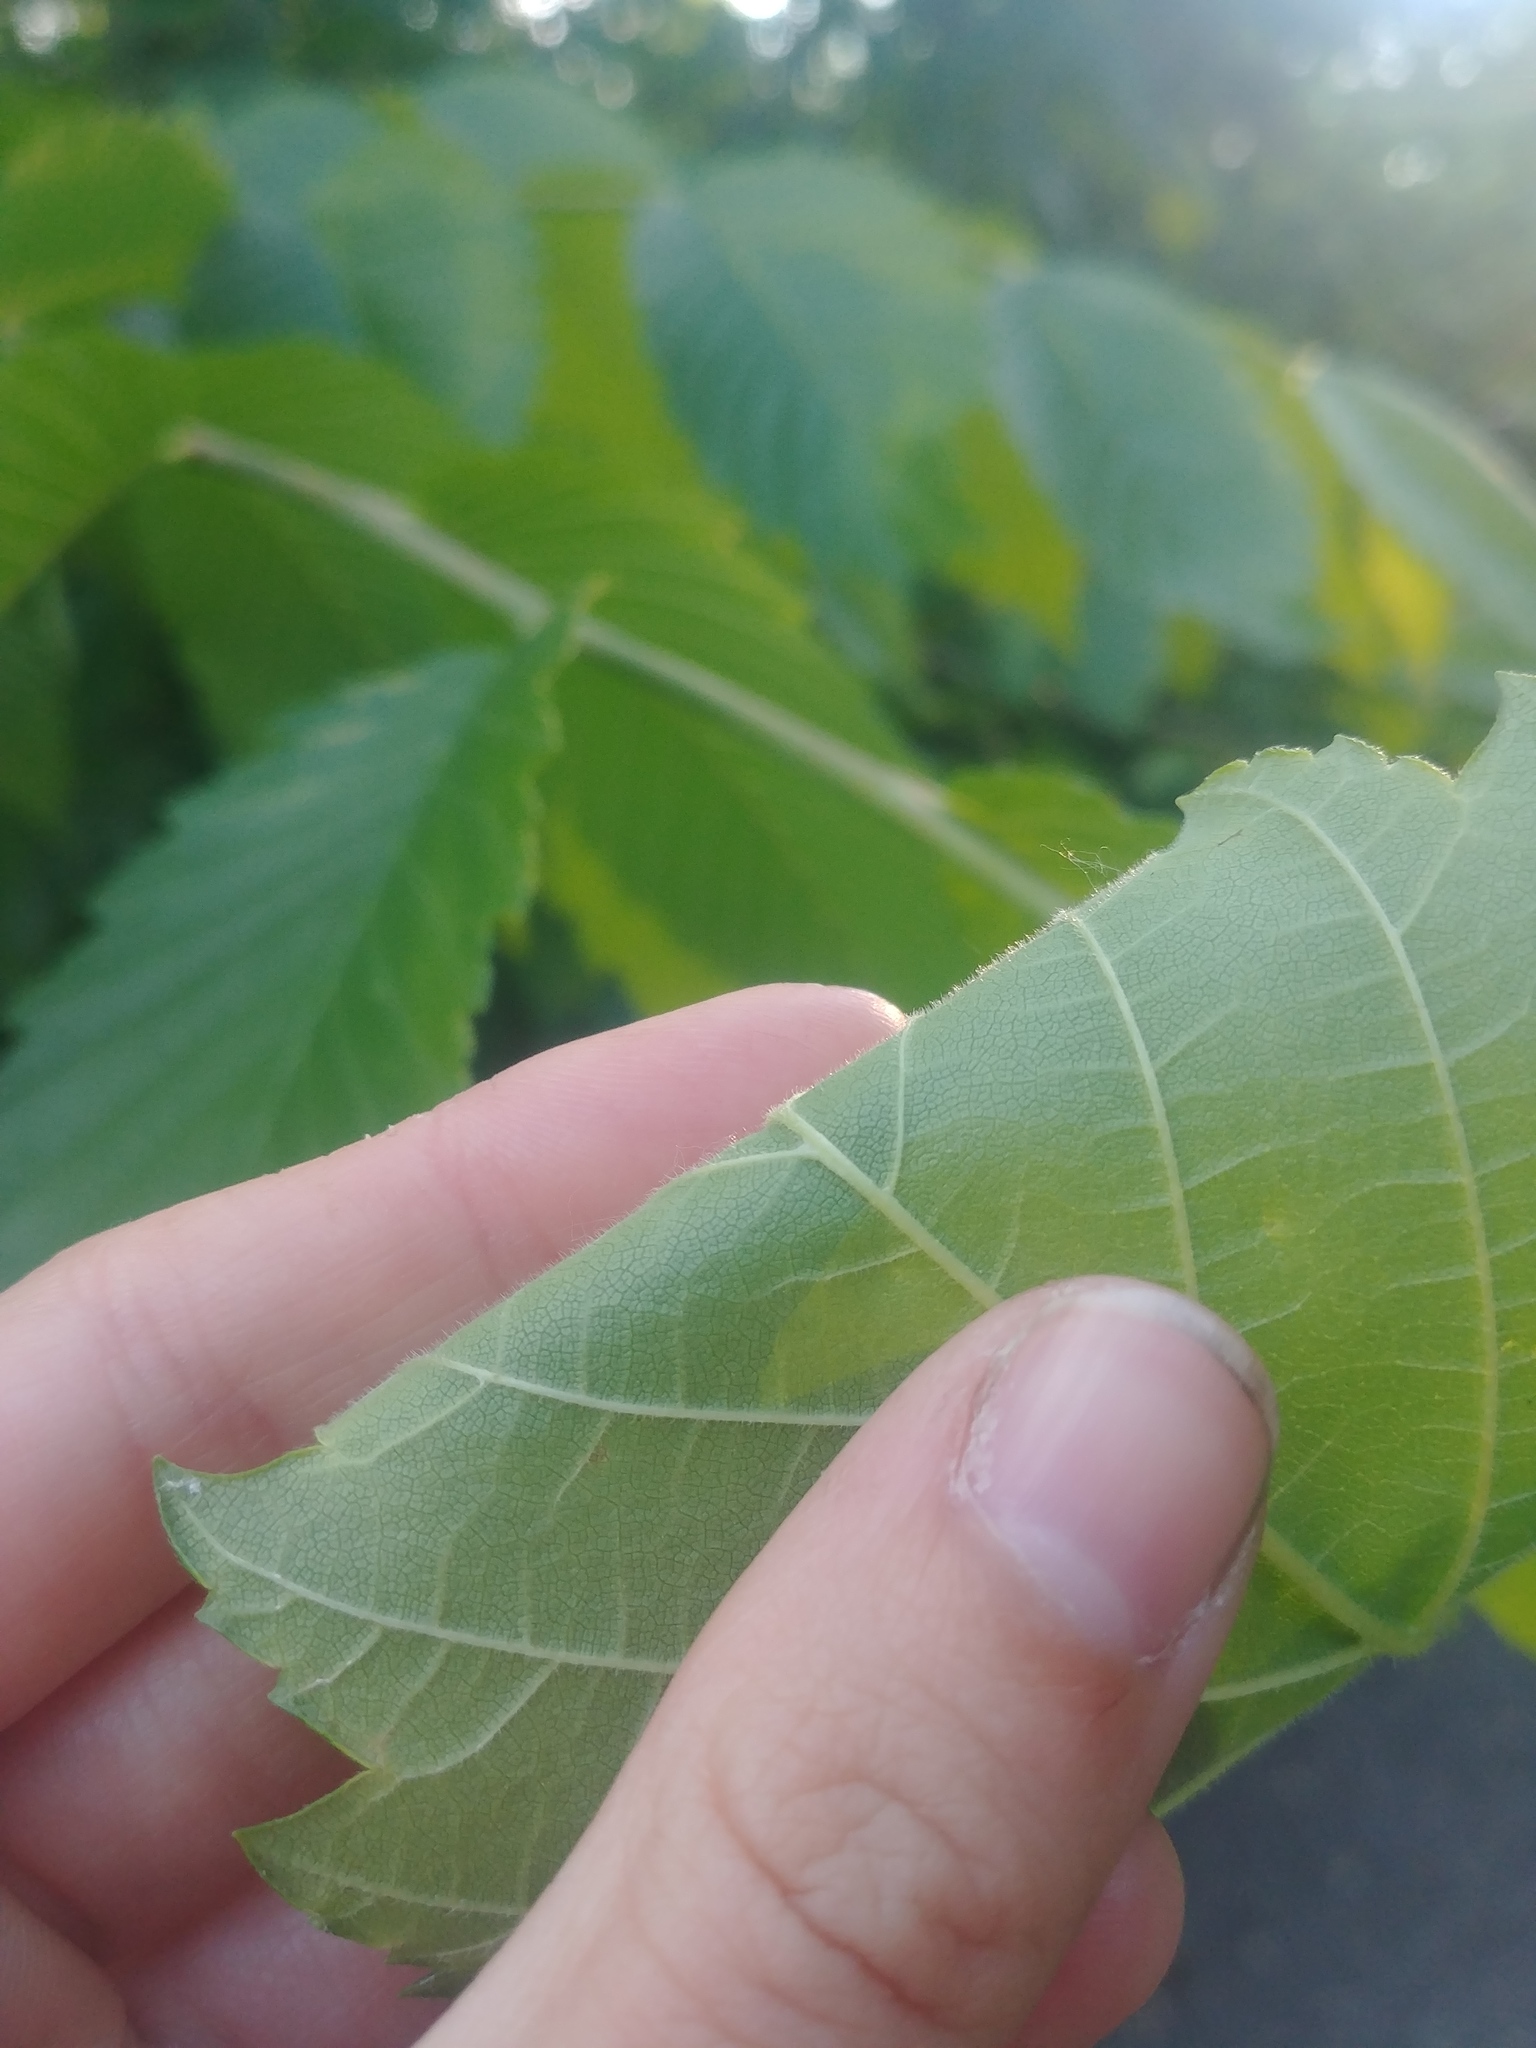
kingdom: Plantae
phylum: Tracheophyta
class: Magnoliopsida
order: Rosales
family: Ulmaceae
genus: Ulmus
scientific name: Ulmus americana
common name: American elm
